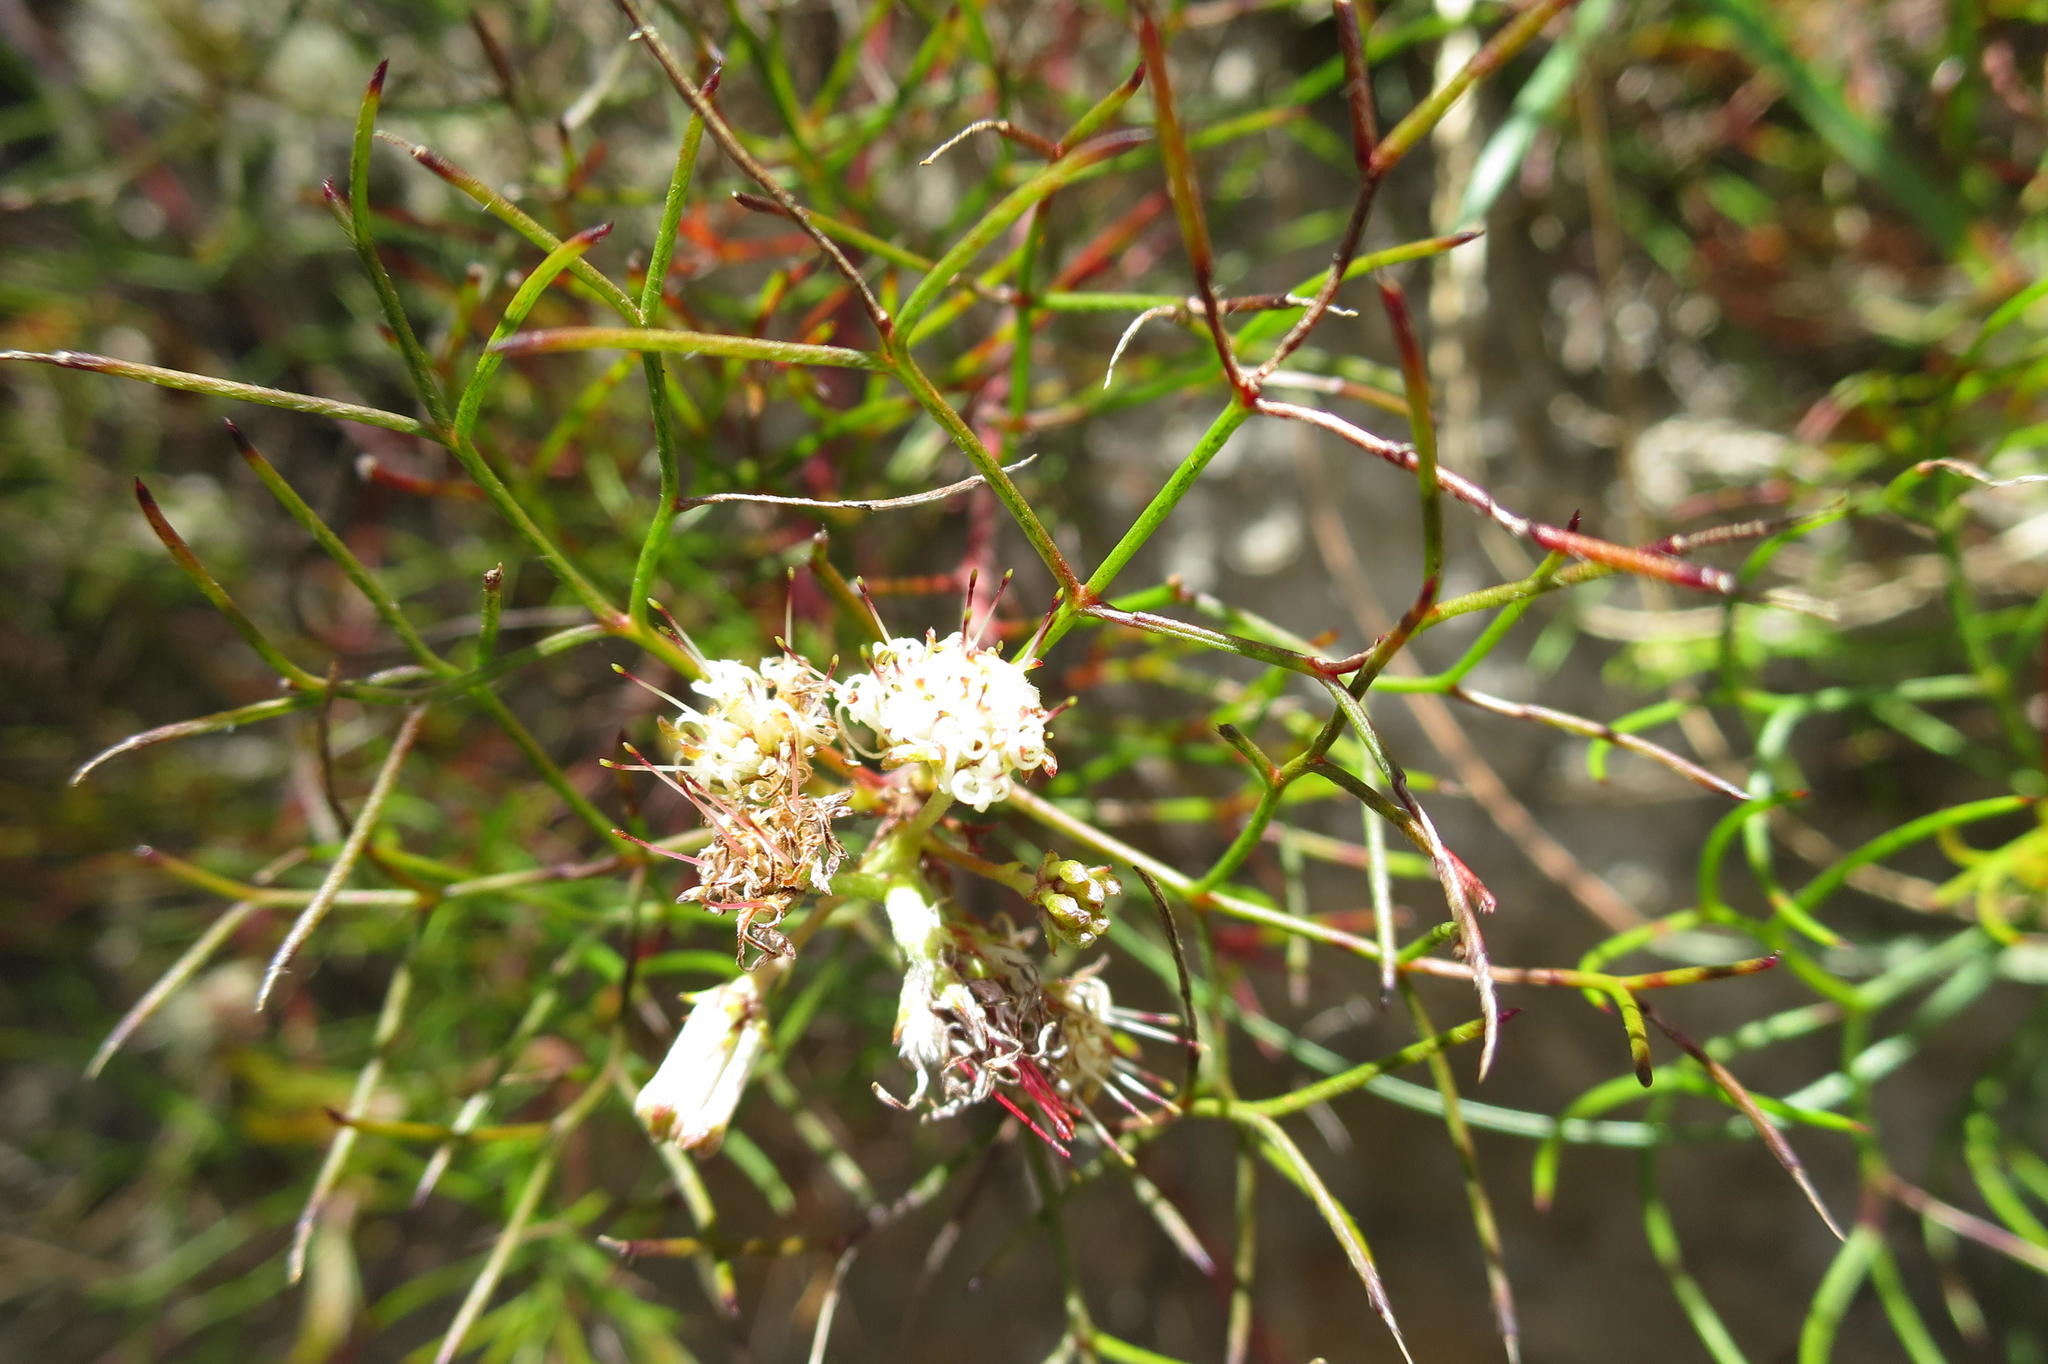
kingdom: Plantae
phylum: Tracheophyta
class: Magnoliopsida
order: Proteales
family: Proteaceae
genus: Serruria
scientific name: Serruria fasciflora
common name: Common pin spiderhead
